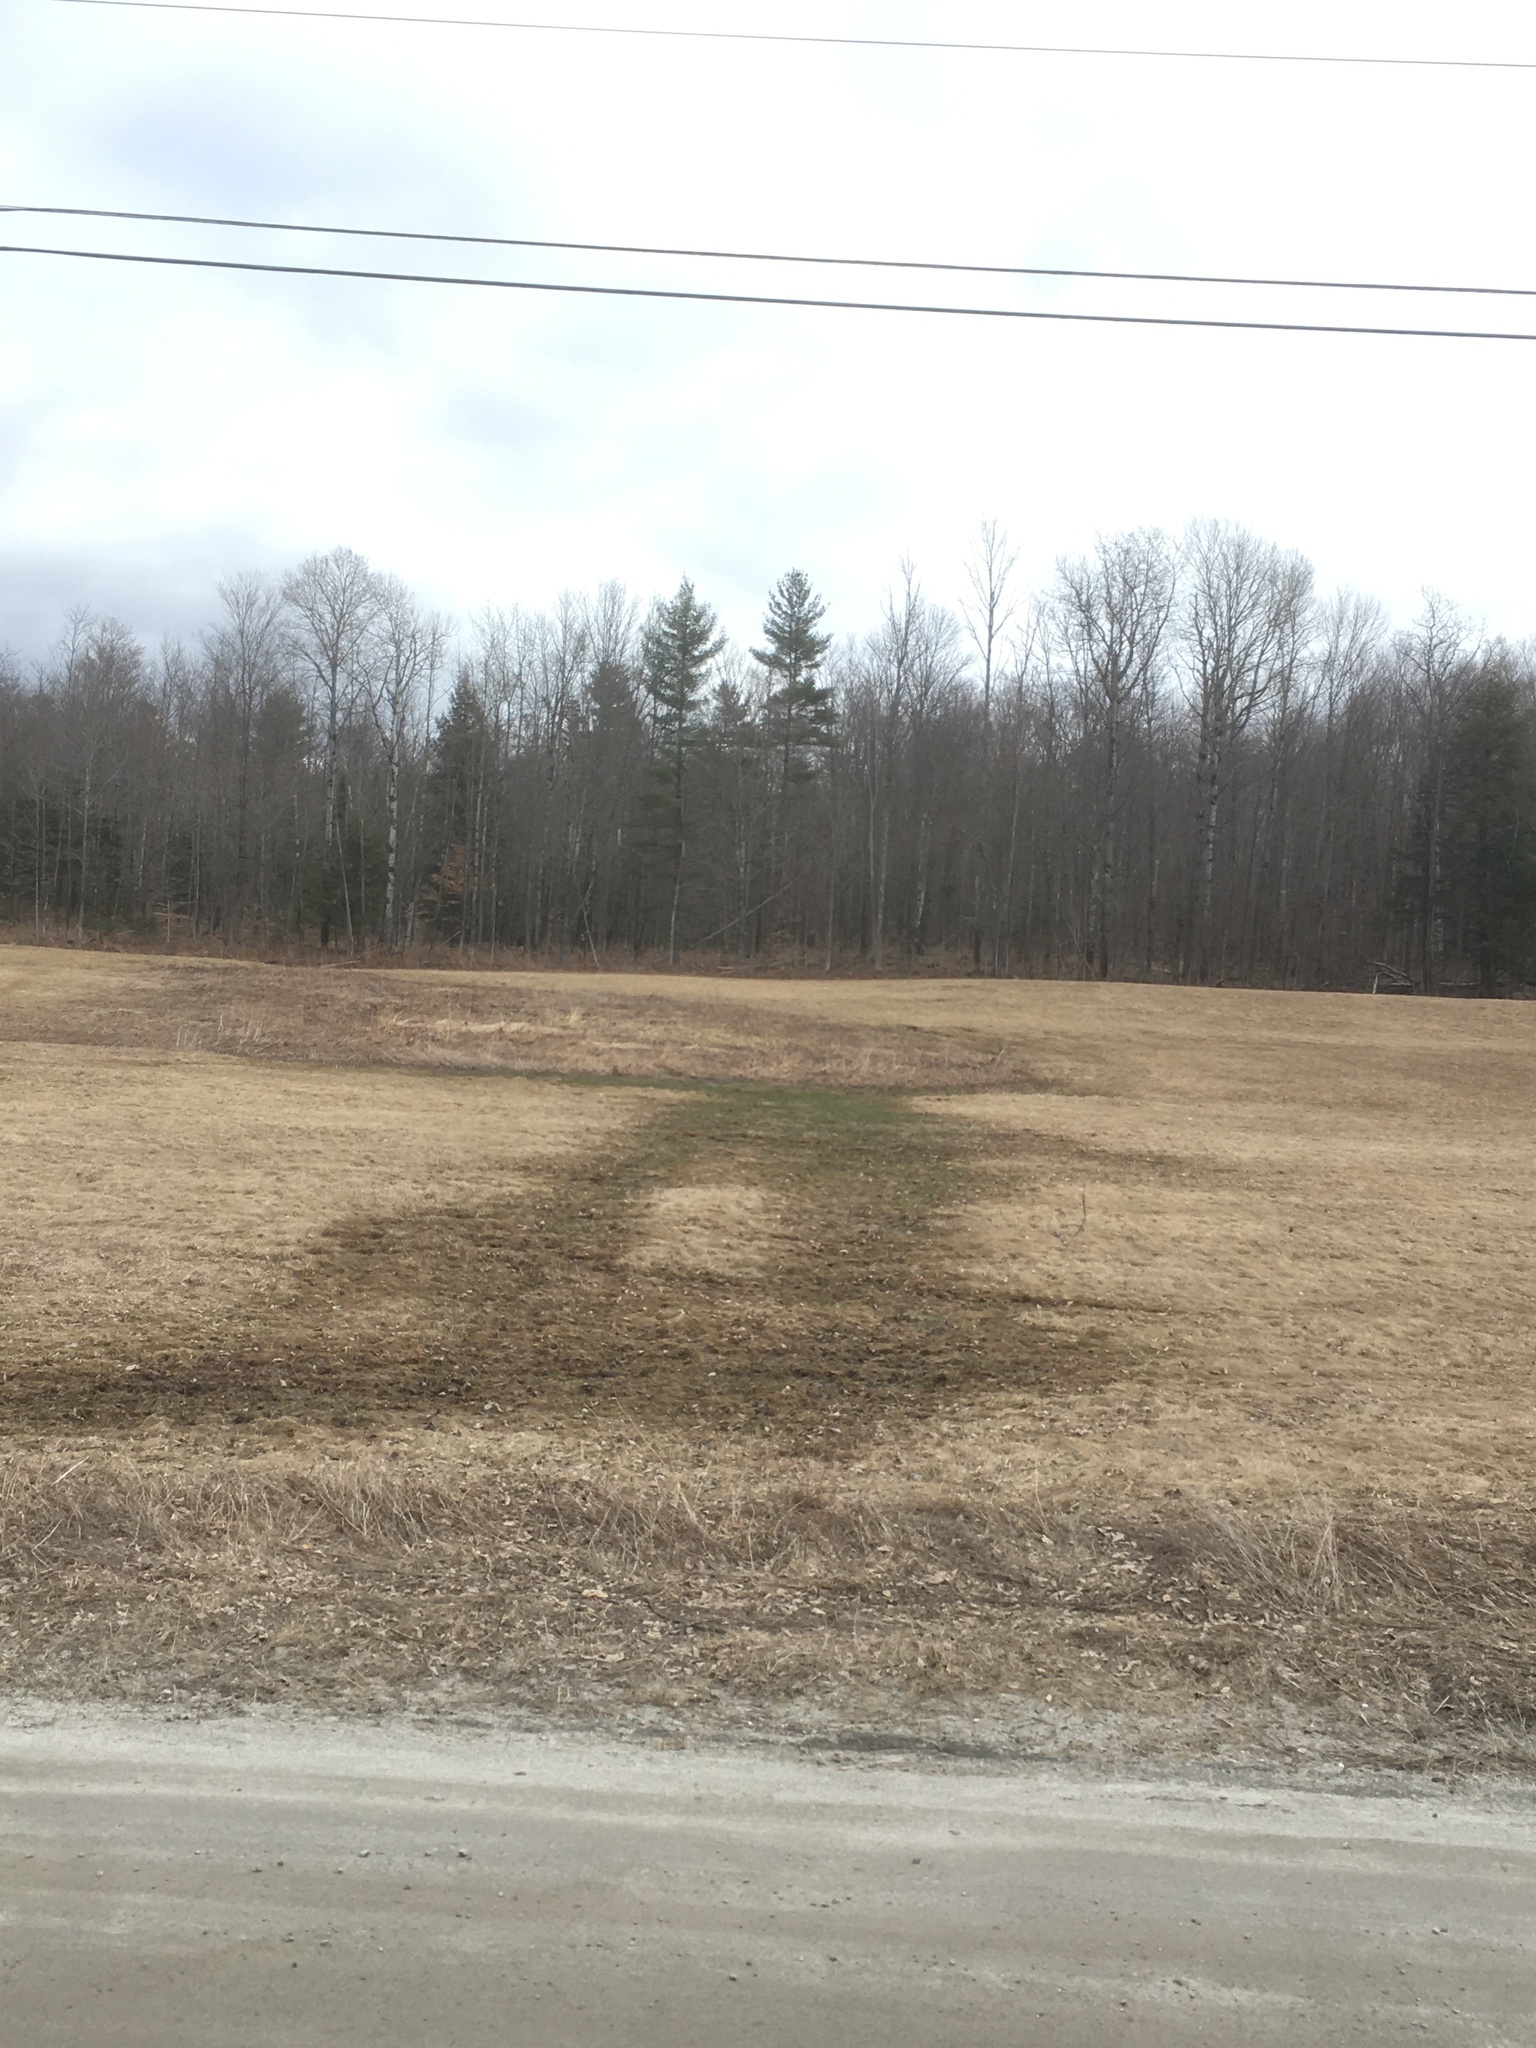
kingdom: Plantae
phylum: Tracheophyta
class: Pinopsida
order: Pinales
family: Pinaceae
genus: Pinus
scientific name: Pinus strobus
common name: Weymouth pine
